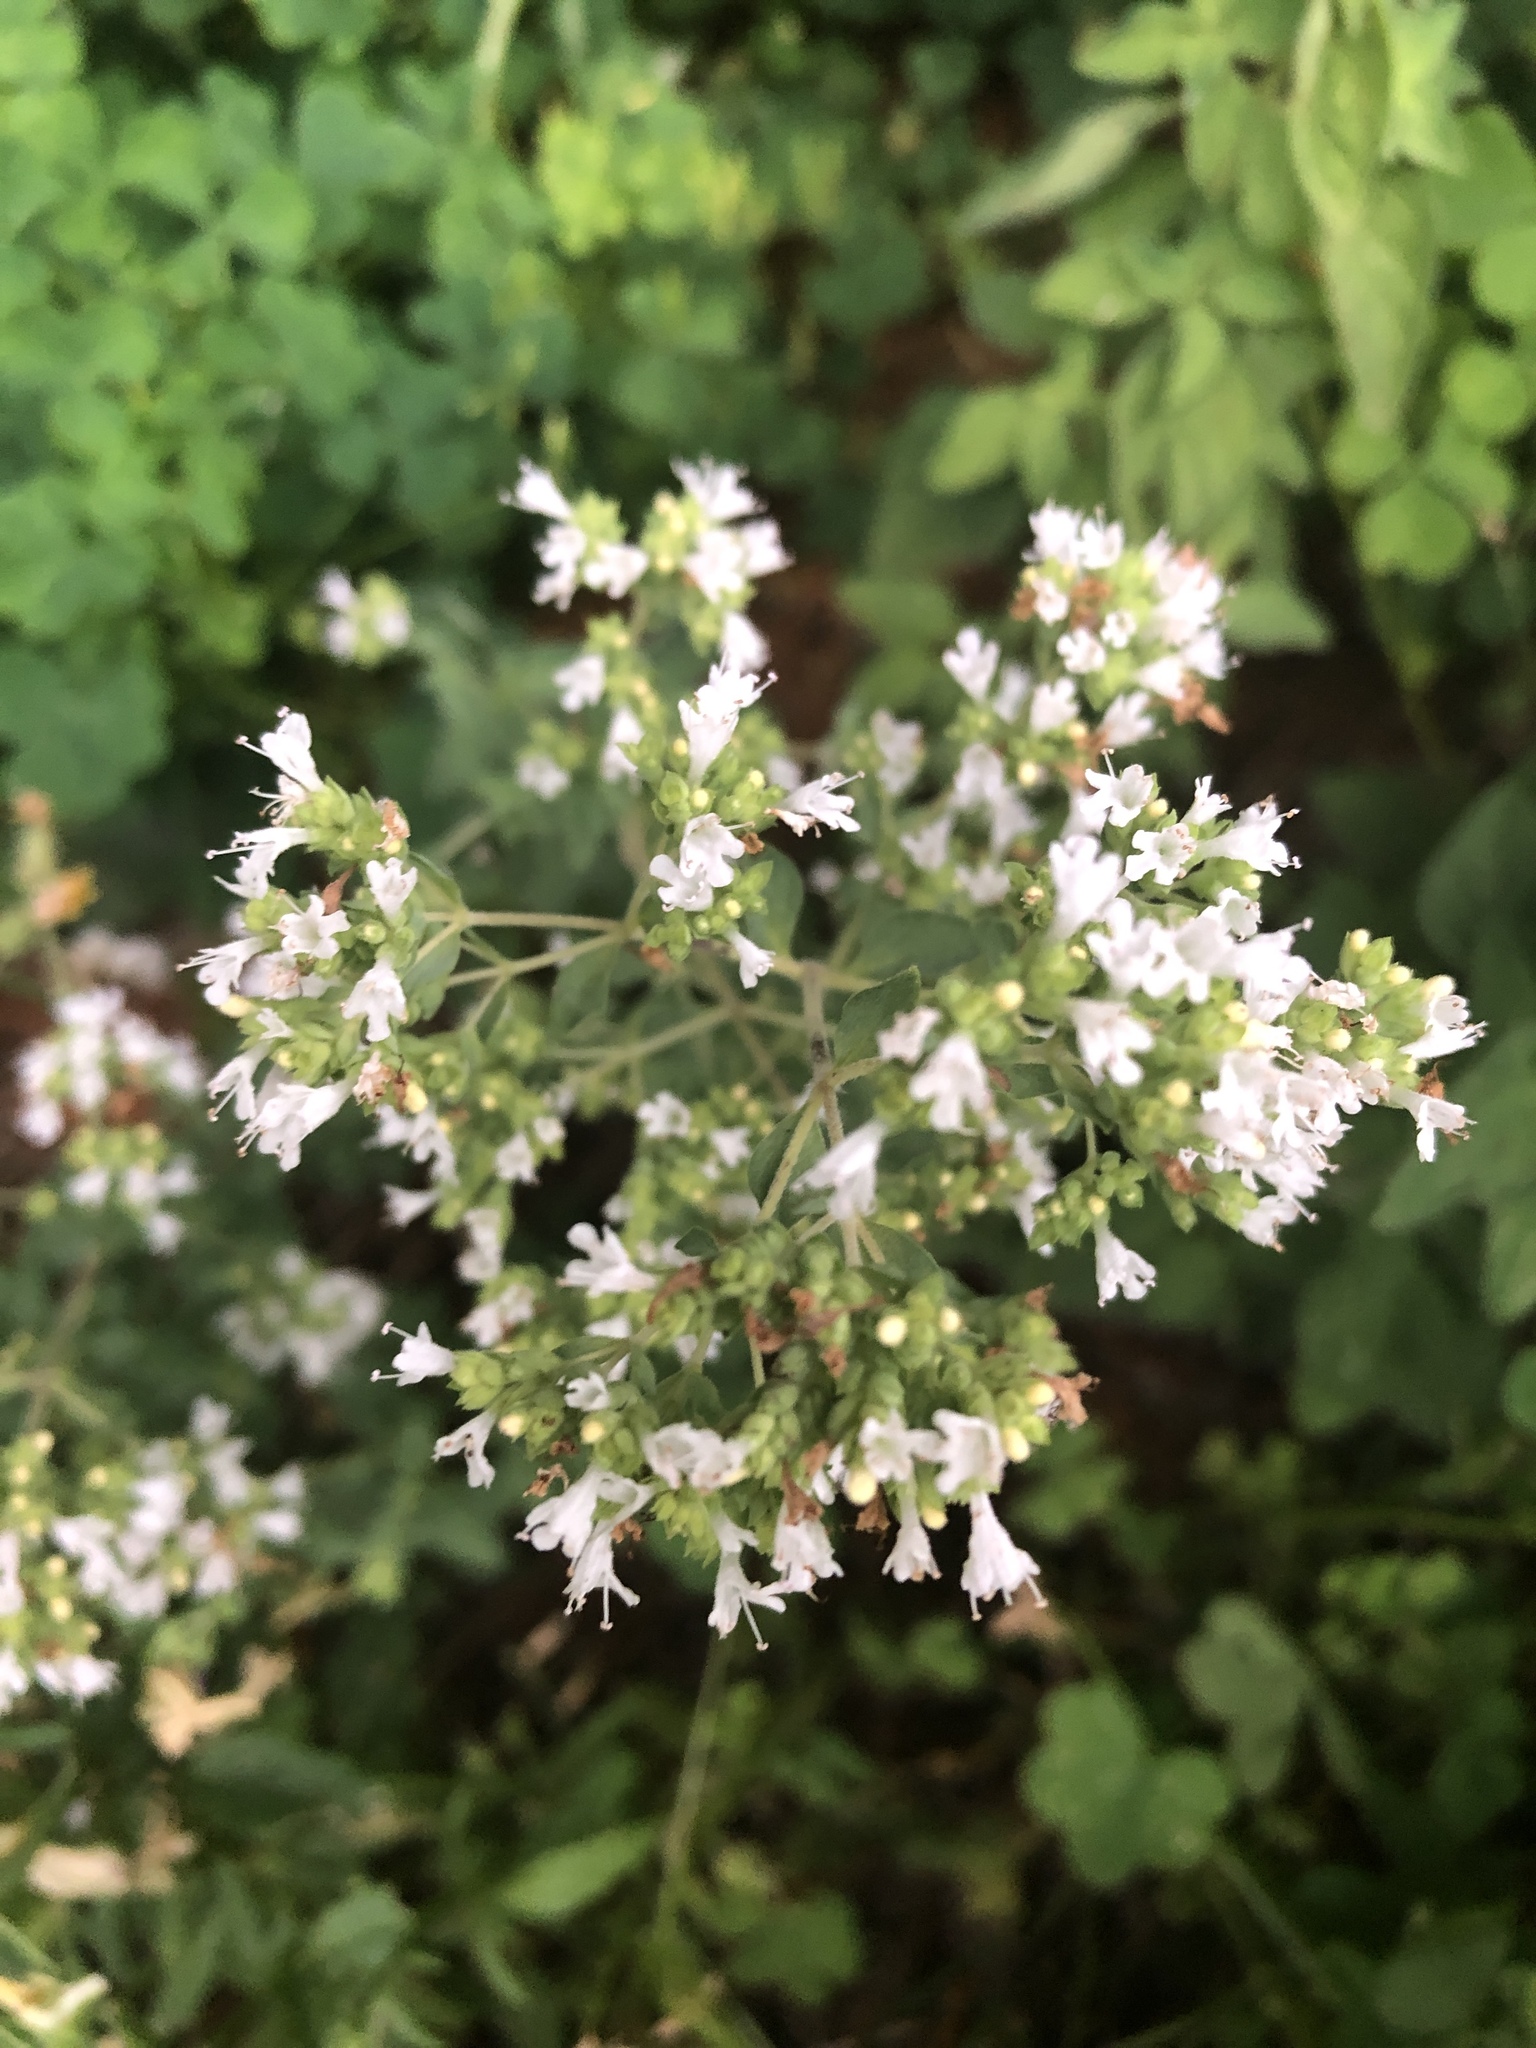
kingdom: Plantae
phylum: Tracheophyta
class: Magnoliopsida
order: Lamiales
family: Lamiaceae
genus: Origanum
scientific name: Origanum vulgare
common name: Wild marjoram
